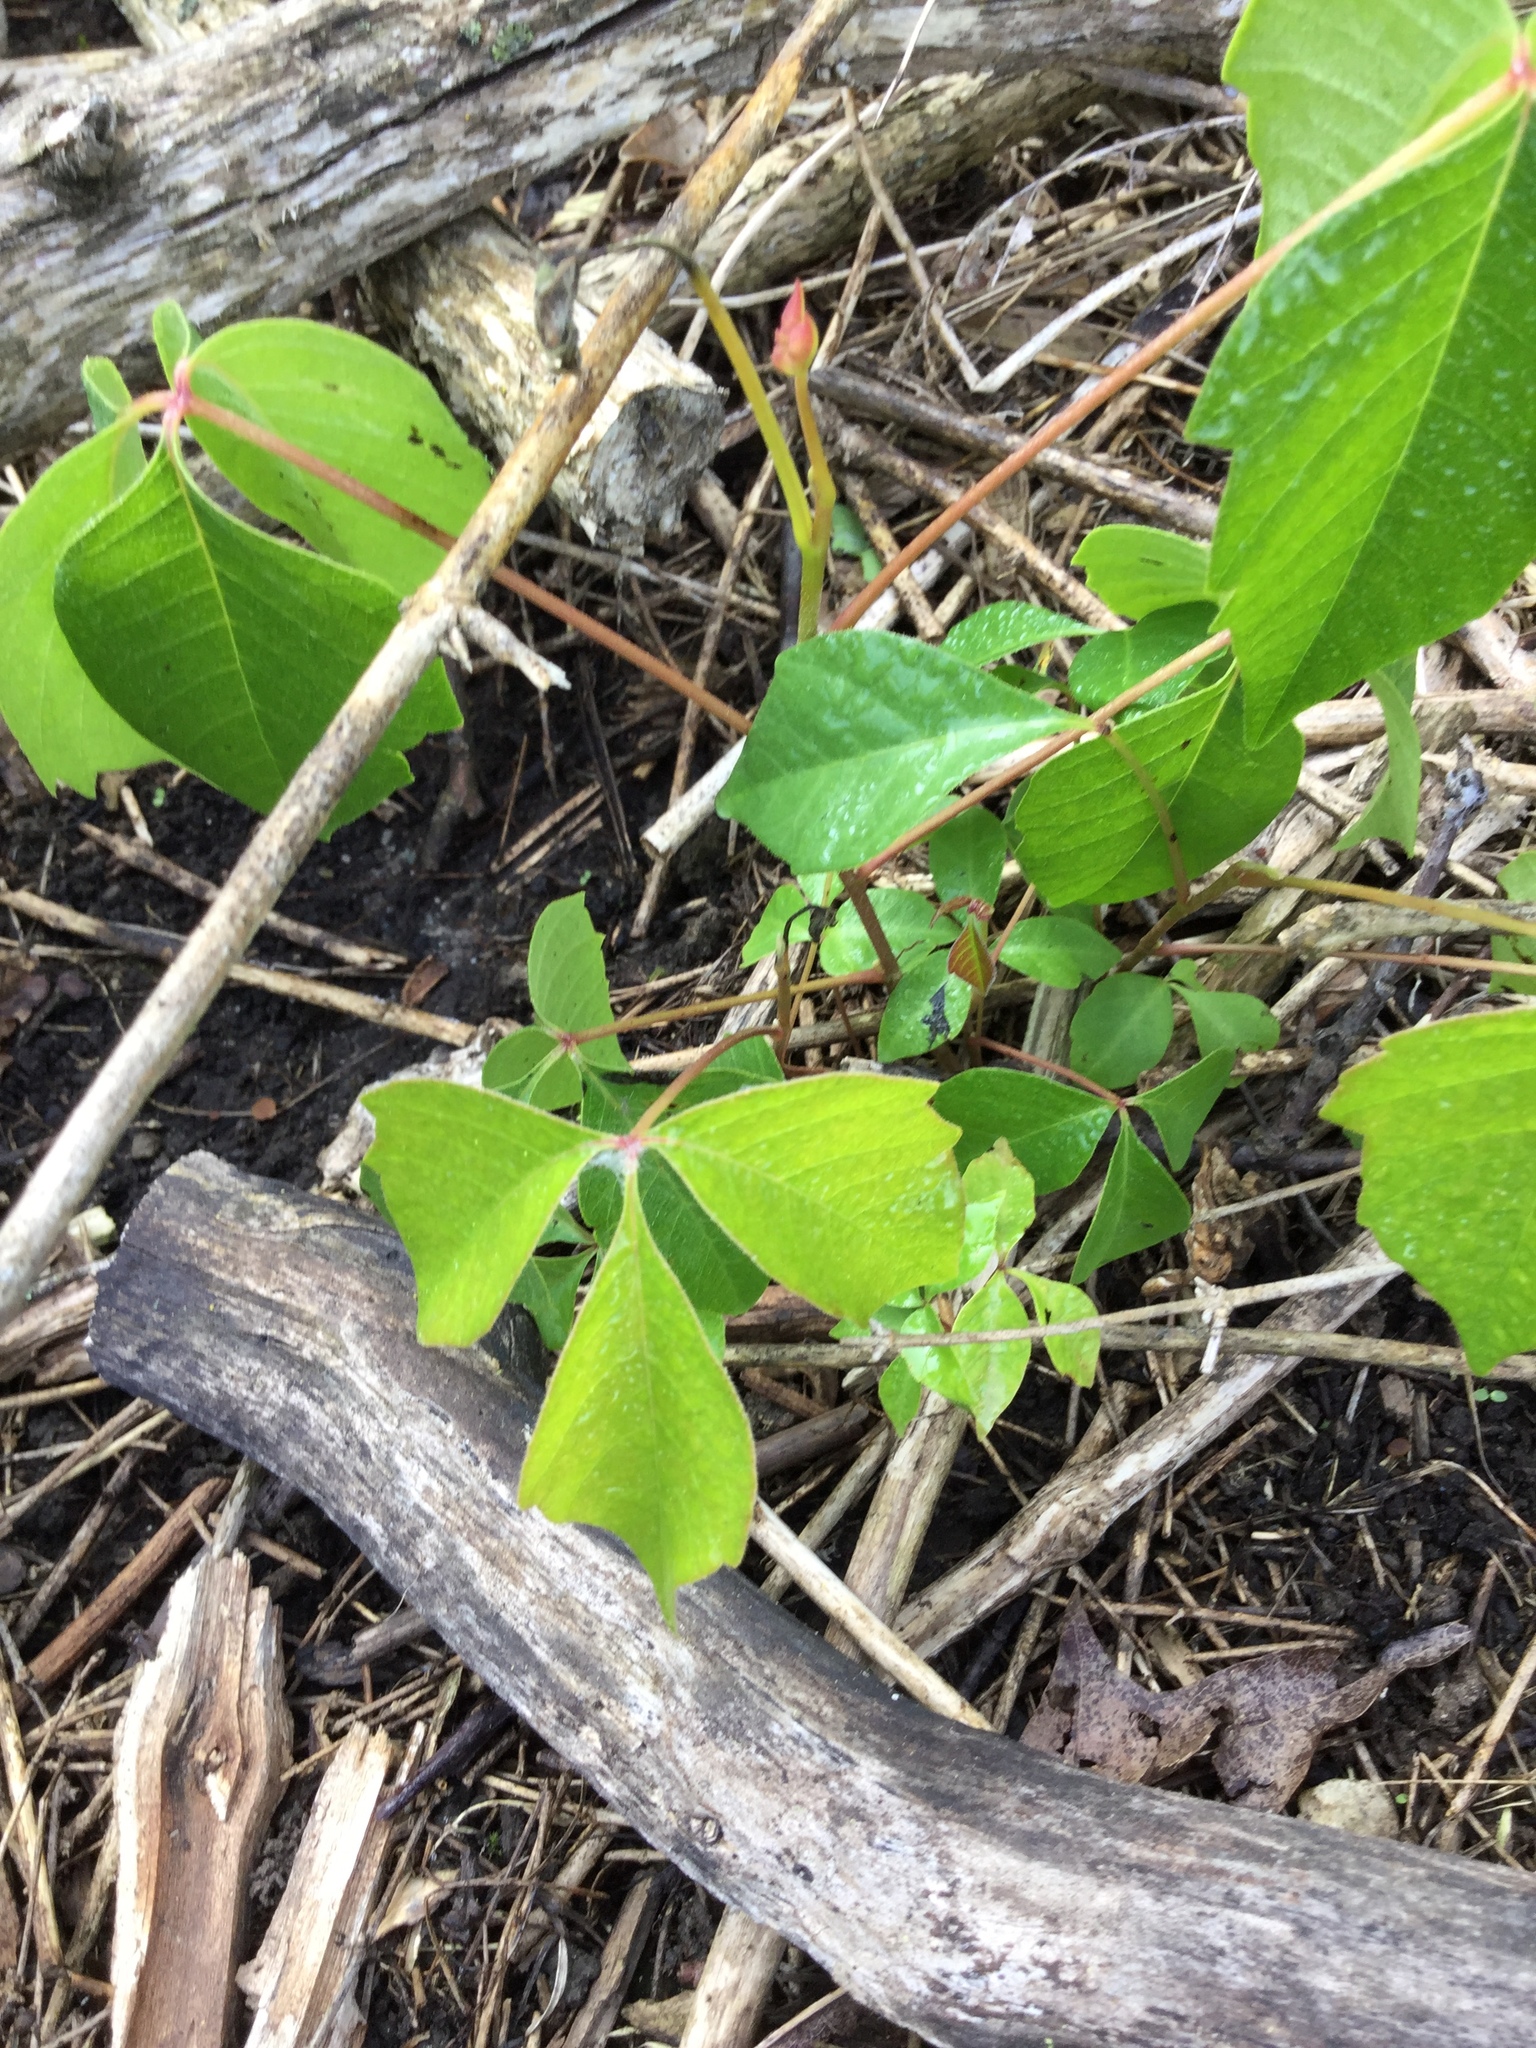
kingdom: Plantae
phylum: Tracheophyta
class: Magnoliopsida
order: Sapindales
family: Anacardiaceae
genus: Toxicodendron
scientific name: Toxicodendron radicans
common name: Poison ivy
